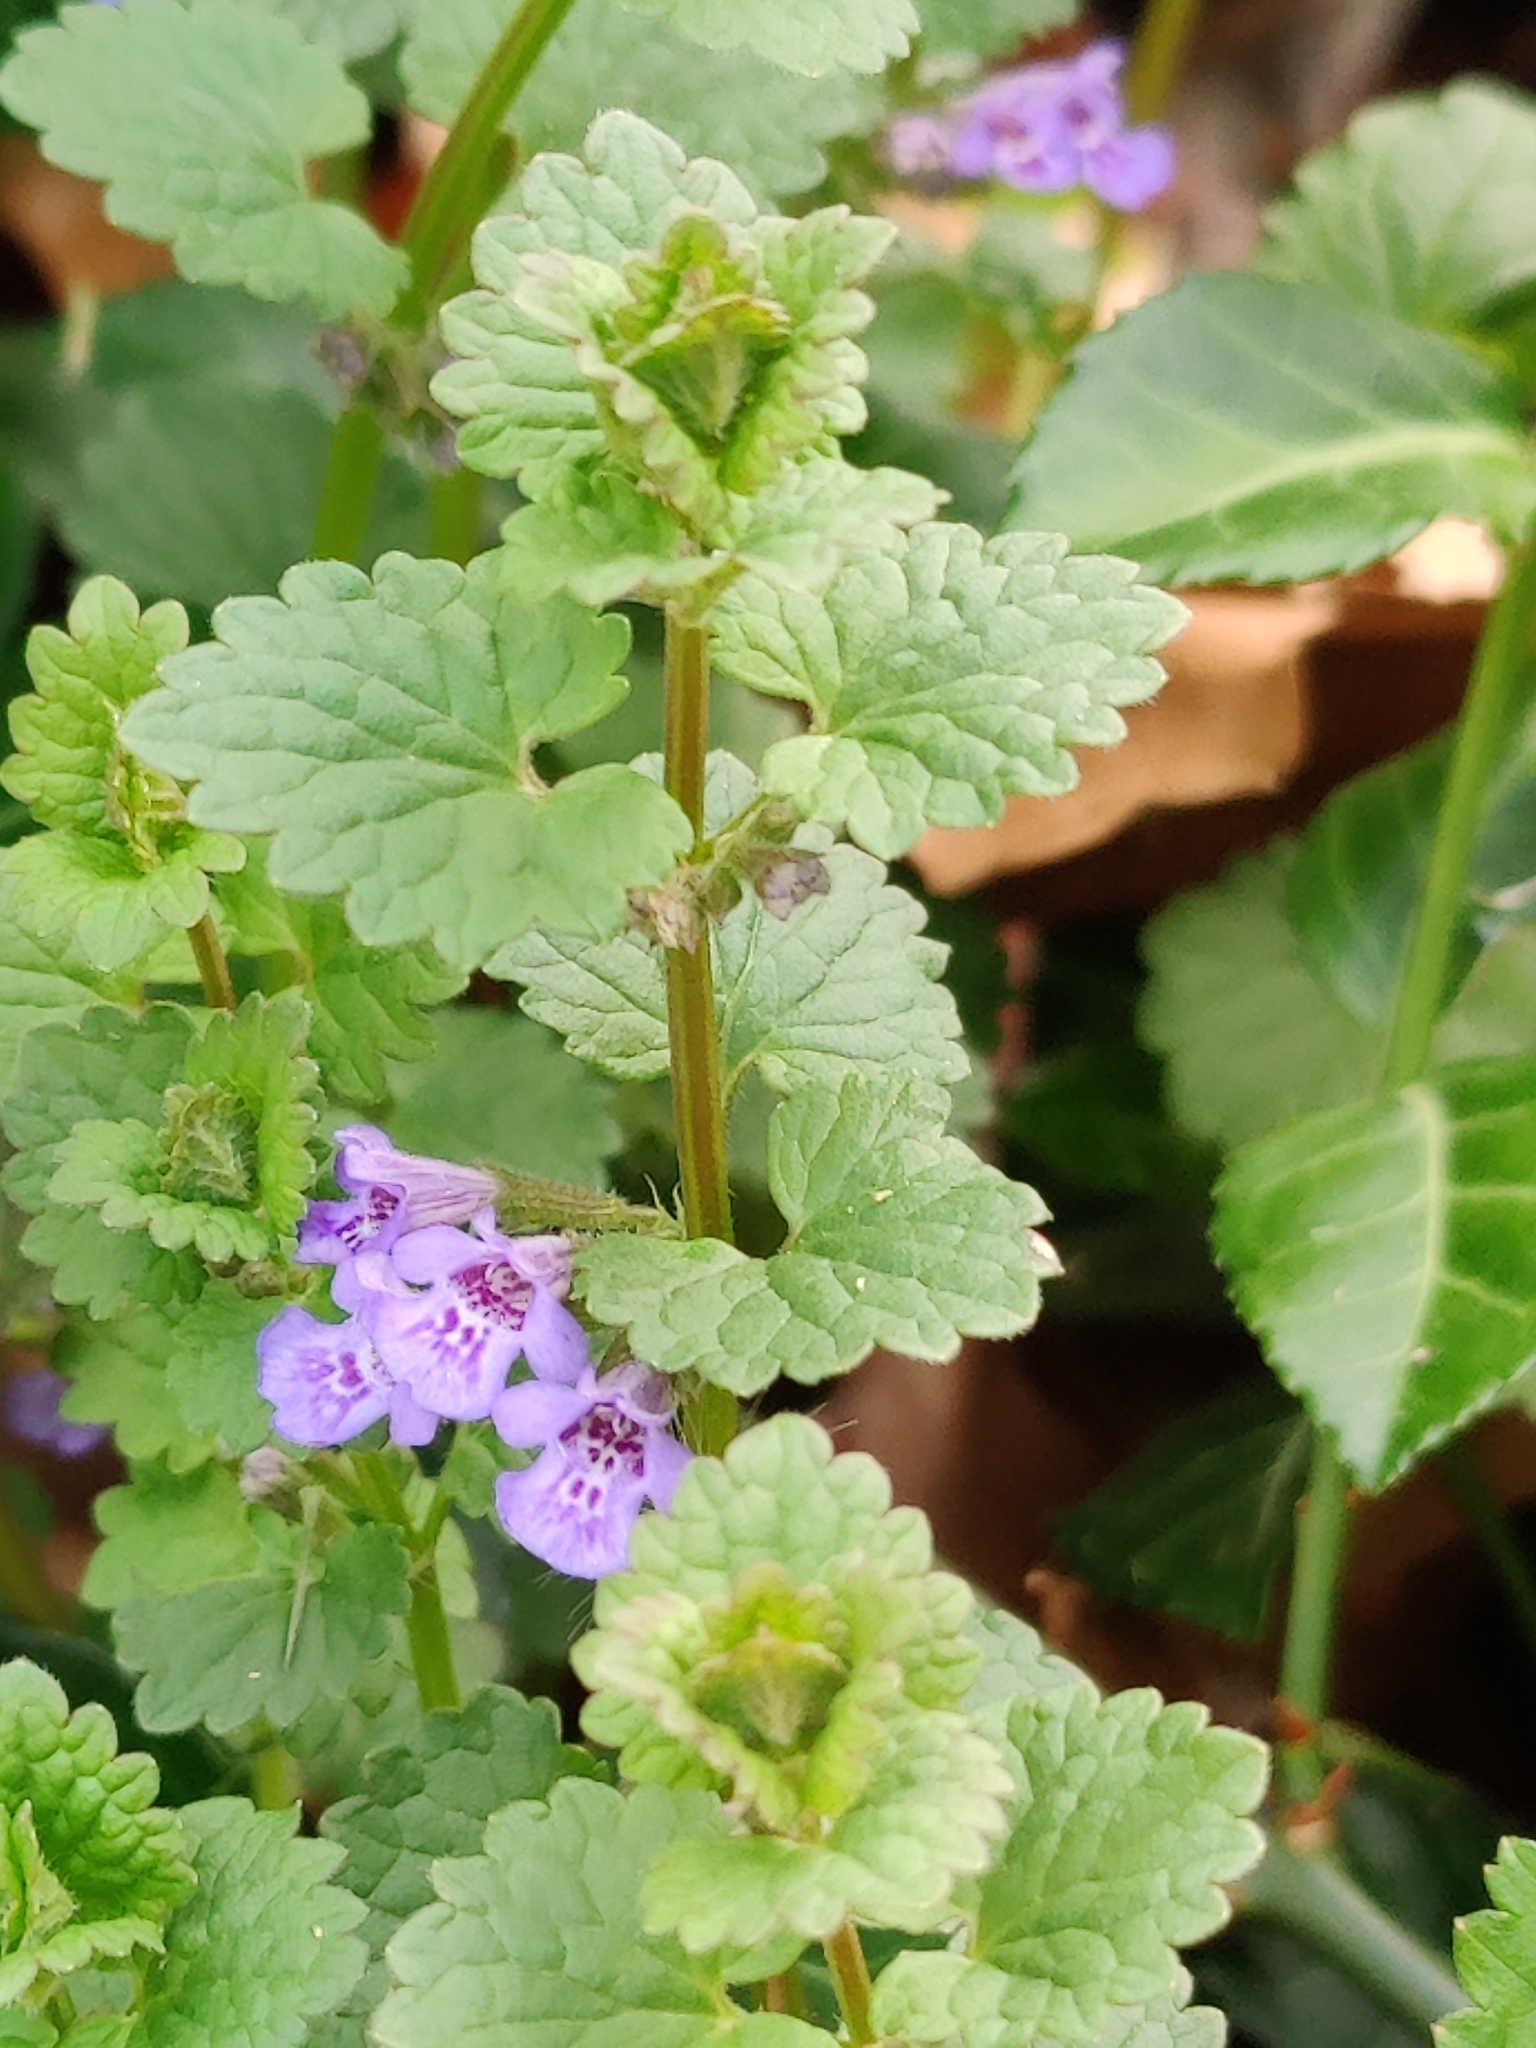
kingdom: Plantae
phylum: Tracheophyta
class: Magnoliopsida
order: Lamiales
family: Lamiaceae
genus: Glechoma
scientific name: Glechoma hederacea
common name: Ground ivy
